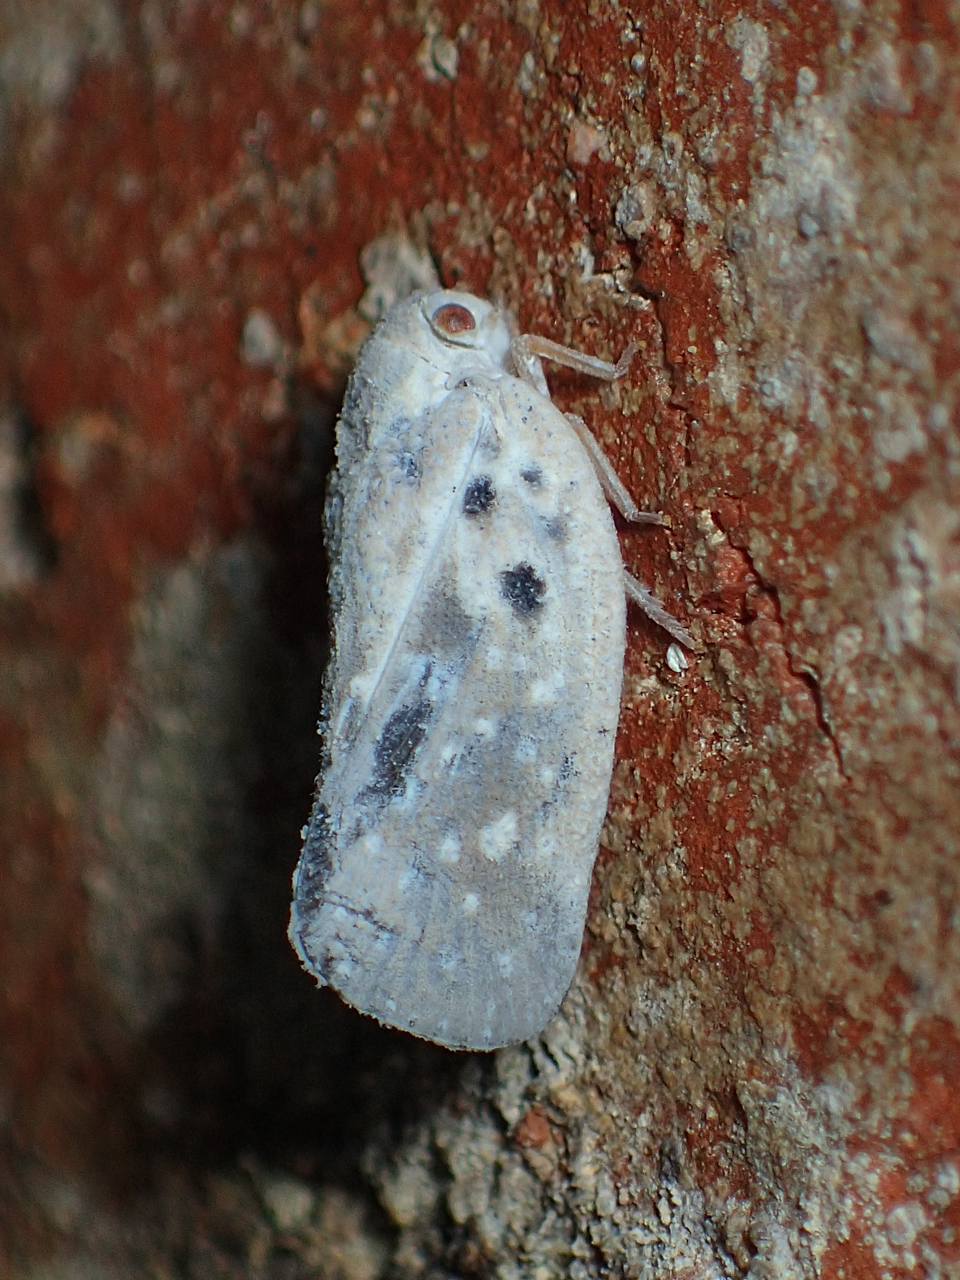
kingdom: Animalia
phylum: Arthropoda
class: Insecta
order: Hemiptera
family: Flatidae
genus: Metcalfa
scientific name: Metcalfa pruinosa
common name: Citrus flatid planthopper
